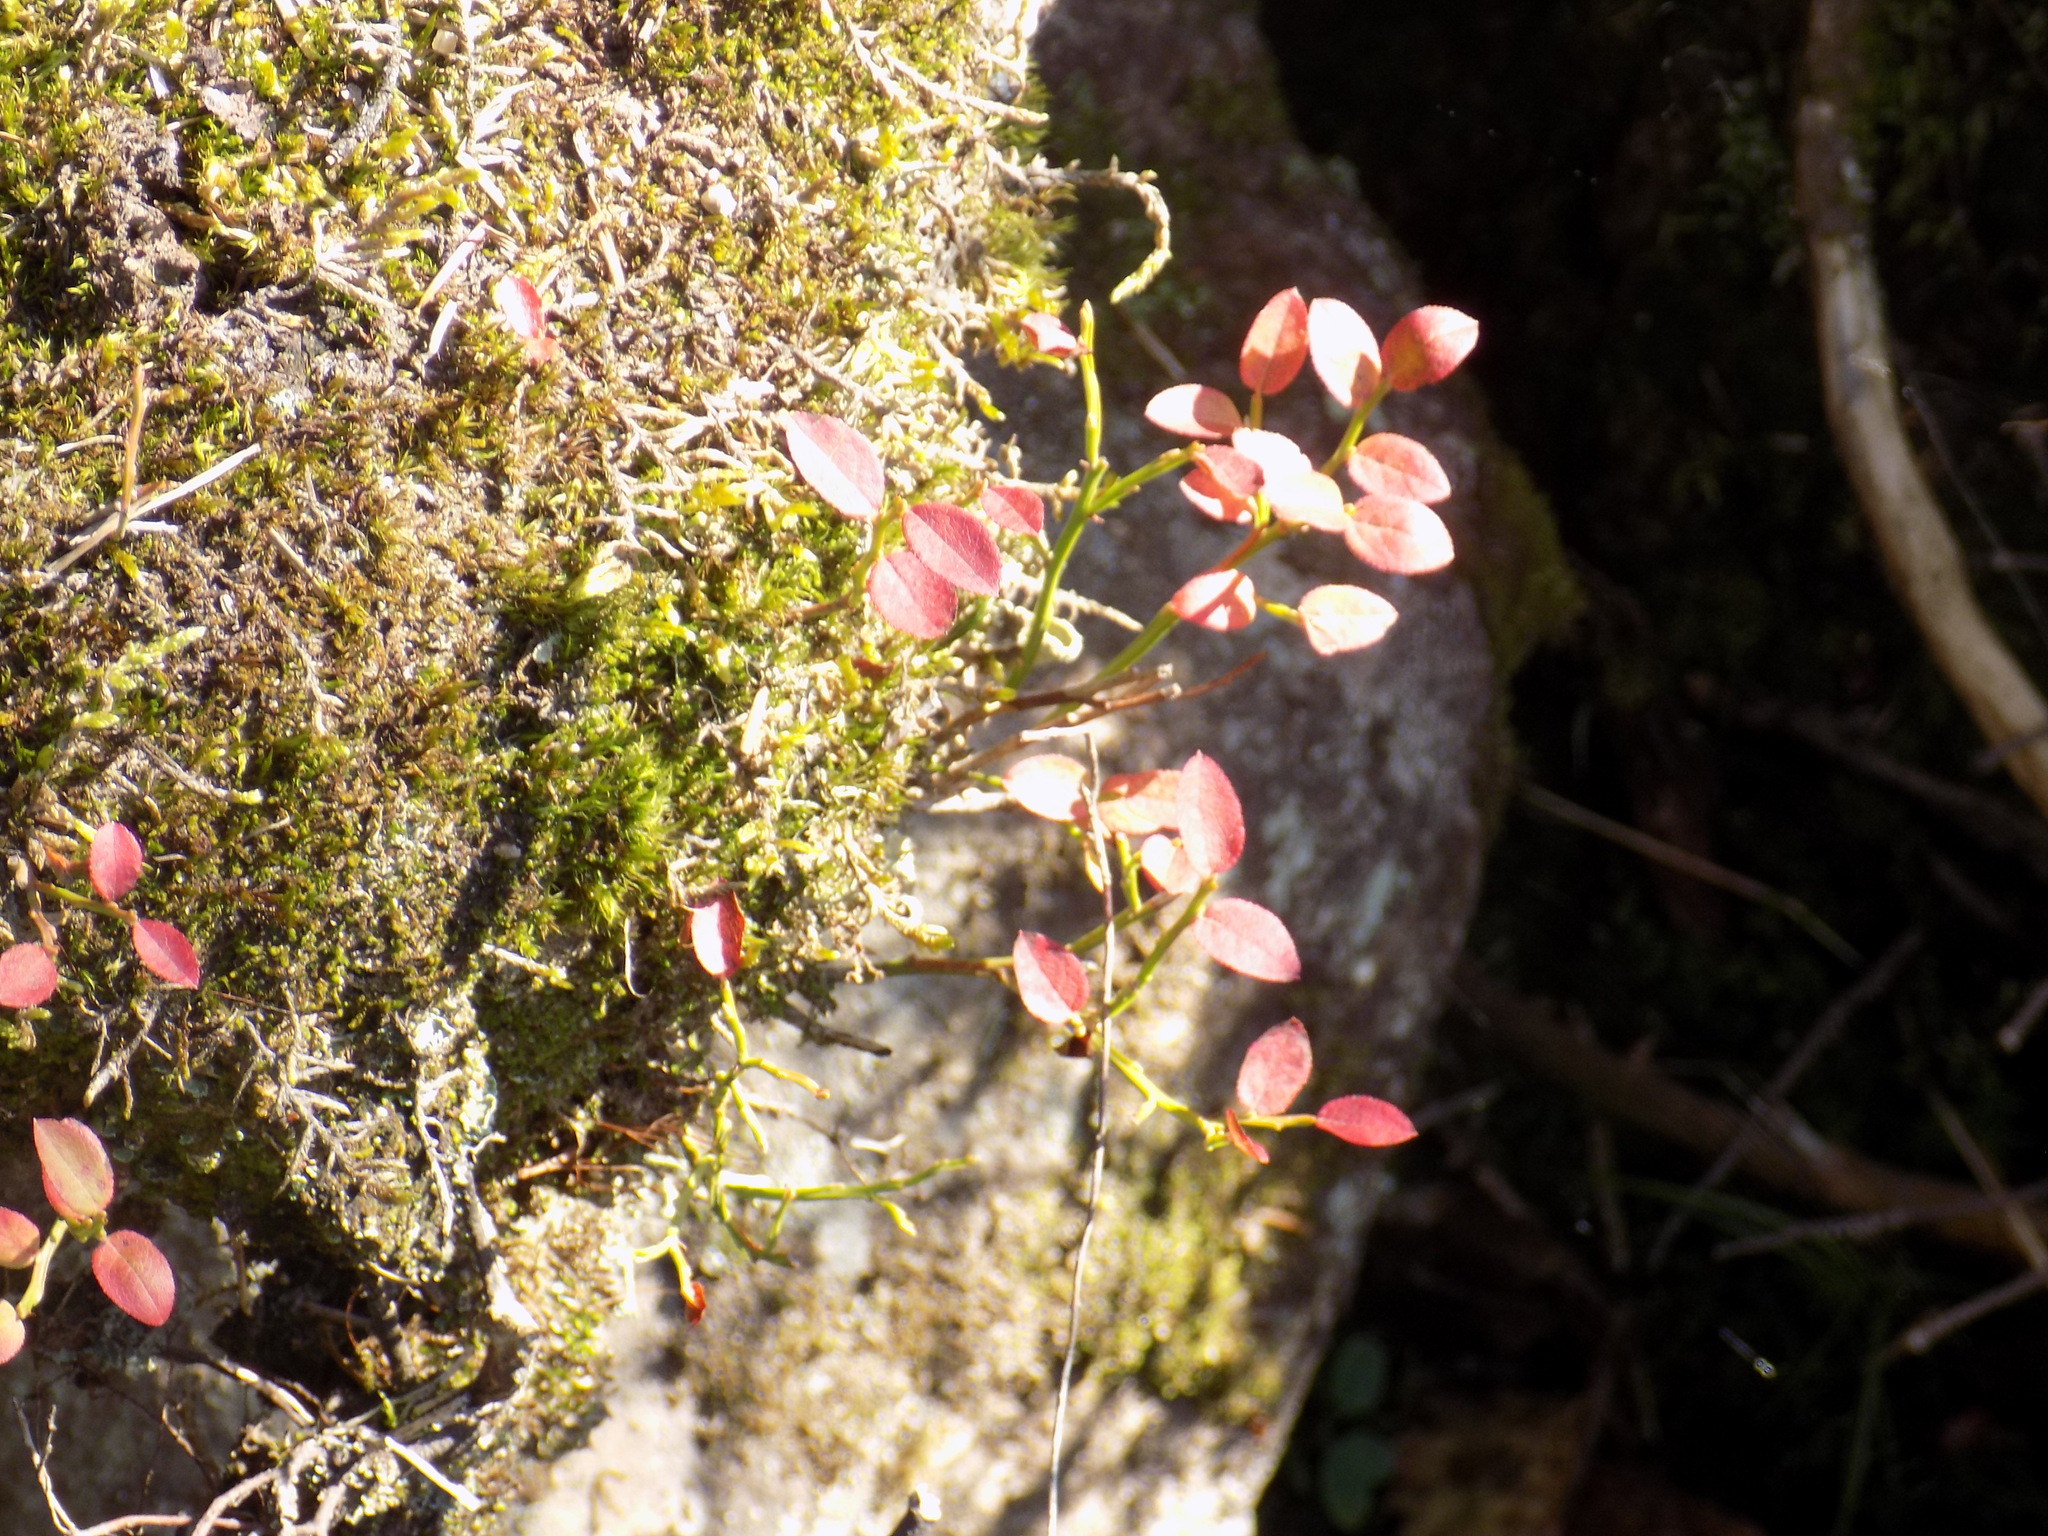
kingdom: Plantae
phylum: Tracheophyta
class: Magnoliopsida
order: Ericales
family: Ericaceae
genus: Vaccinium
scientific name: Vaccinium myrtillus
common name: Bilberry
